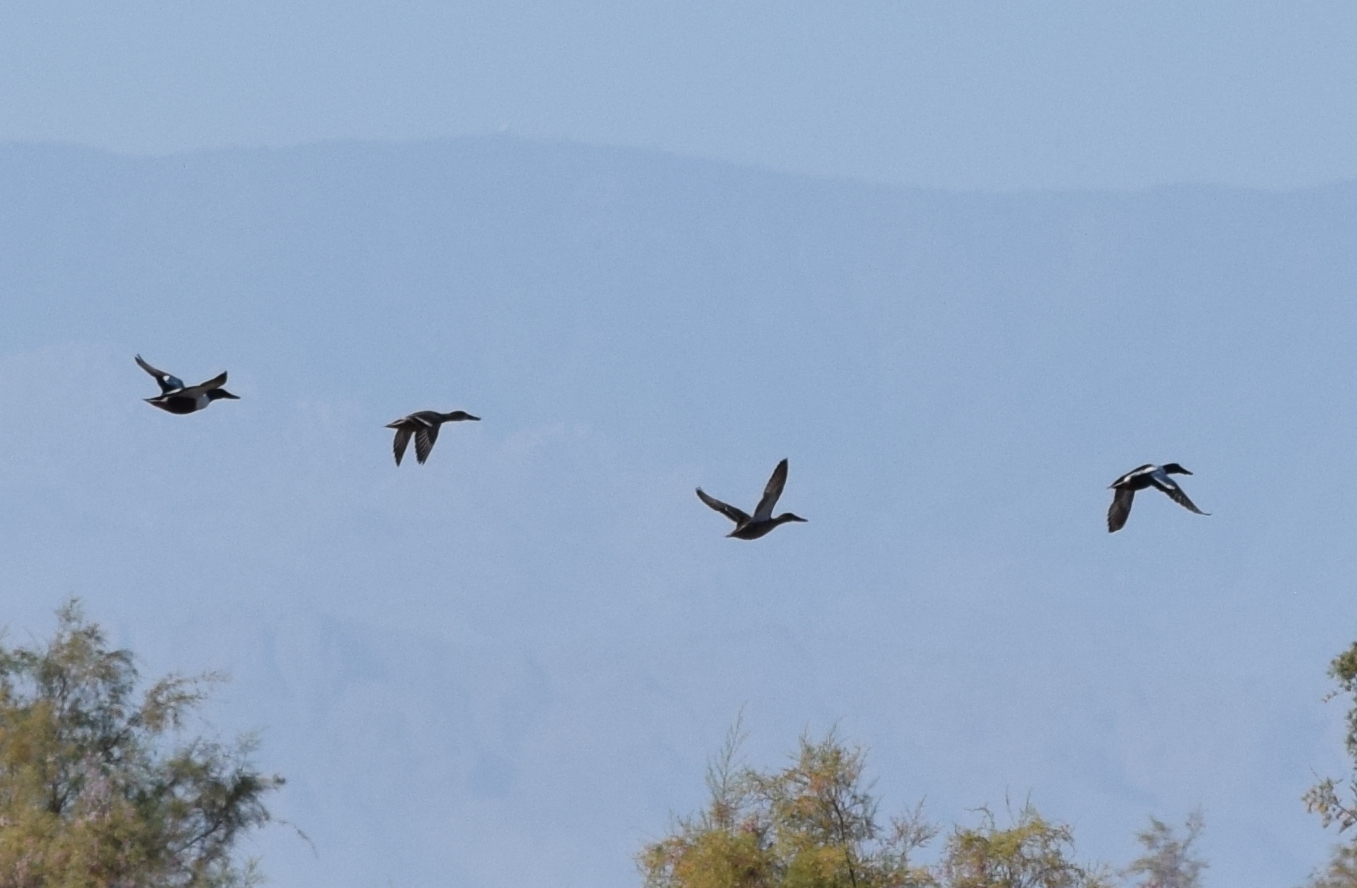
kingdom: Animalia
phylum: Chordata
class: Aves
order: Anseriformes
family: Anatidae
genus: Spatula
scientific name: Spatula clypeata
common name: Northern shoveler
